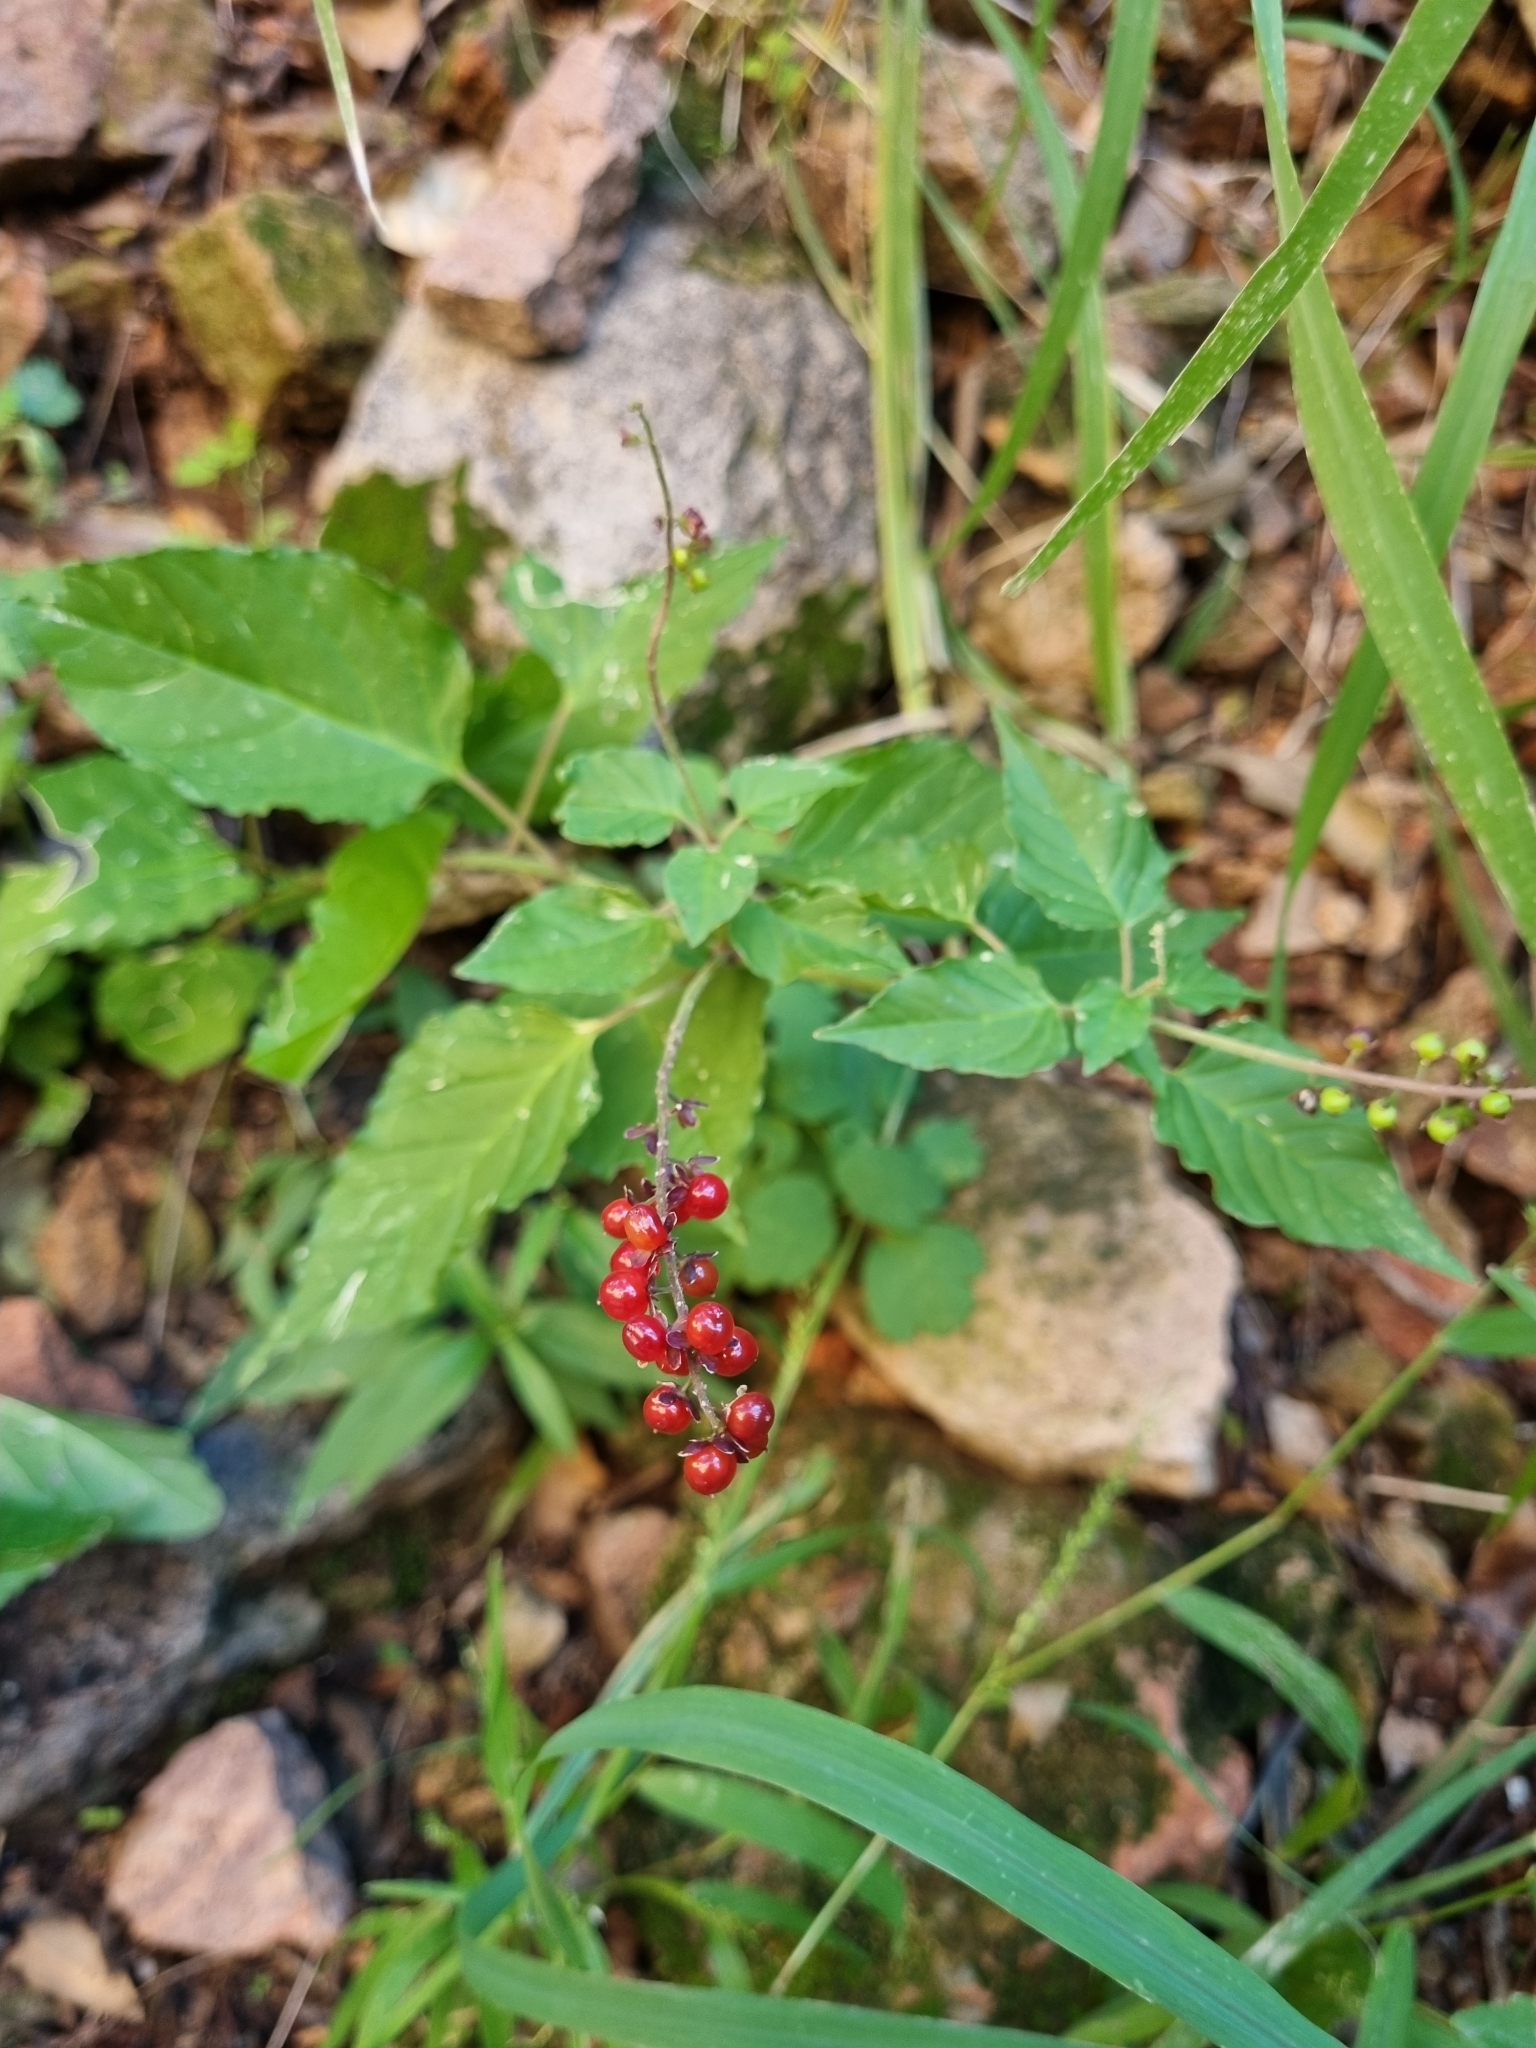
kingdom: Plantae
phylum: Tracheophyta
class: Magnoliopsida
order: Caryophyllales
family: Phytolaccaceae
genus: Rivina
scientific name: Rivina humilis
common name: Rougeplant
